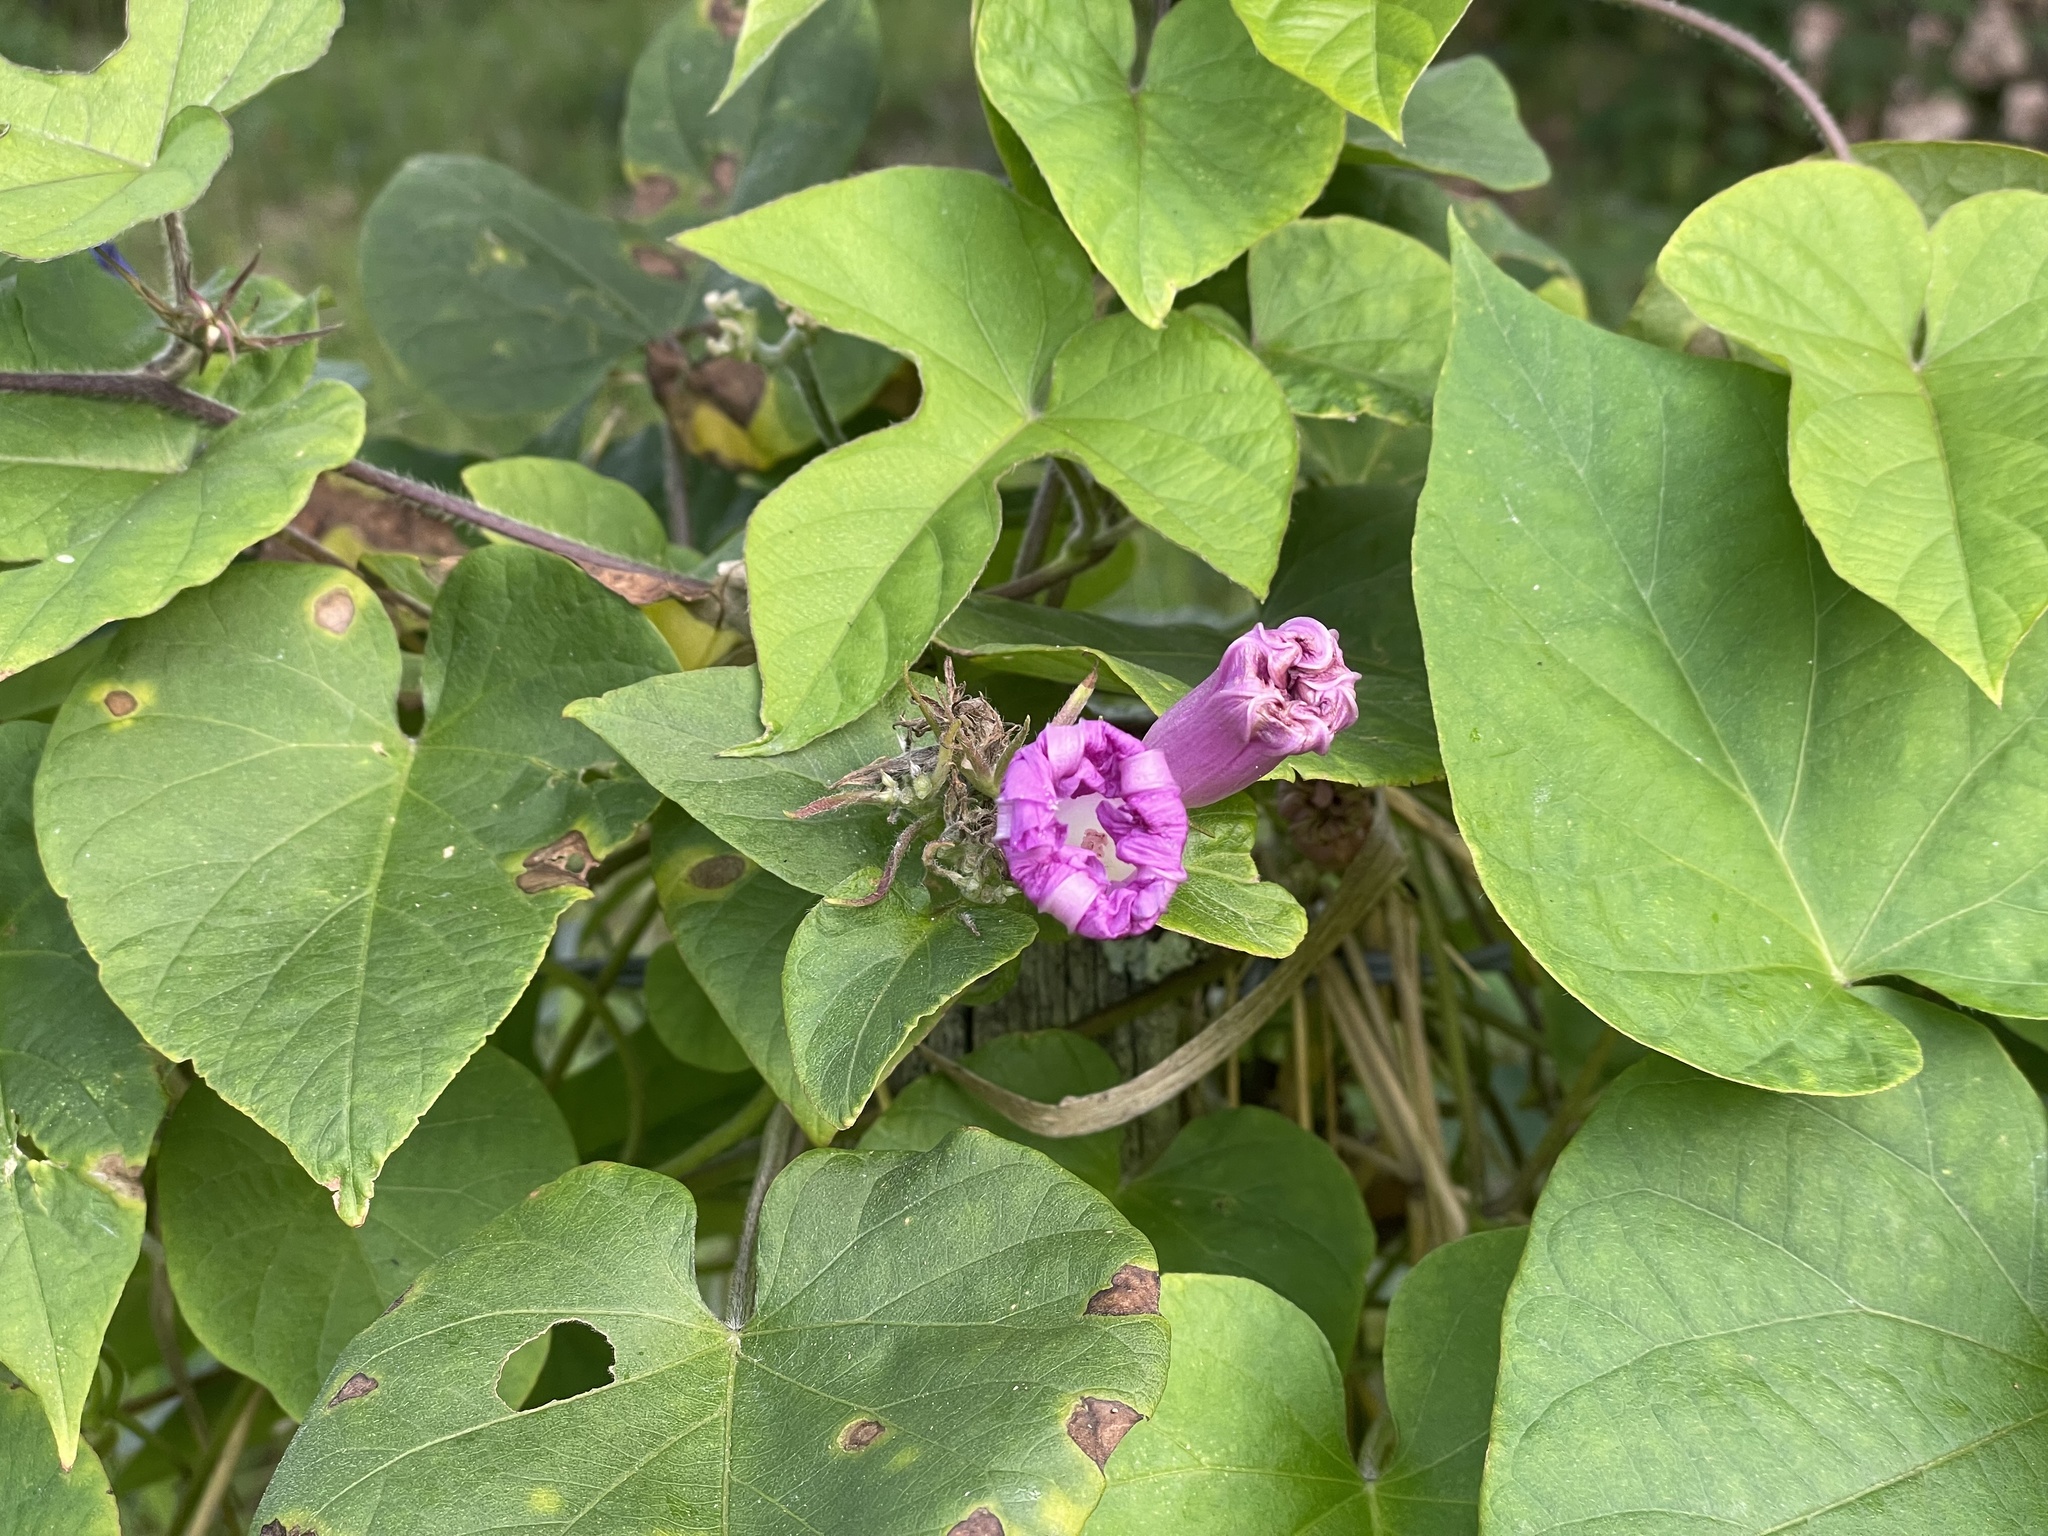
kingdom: Plantae
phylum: Tracheophyta
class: Magnoliopsida
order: Solanales
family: Convolvulaceae
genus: Ipomoea
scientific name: Ipomoea indica
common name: Blue dawnflower
